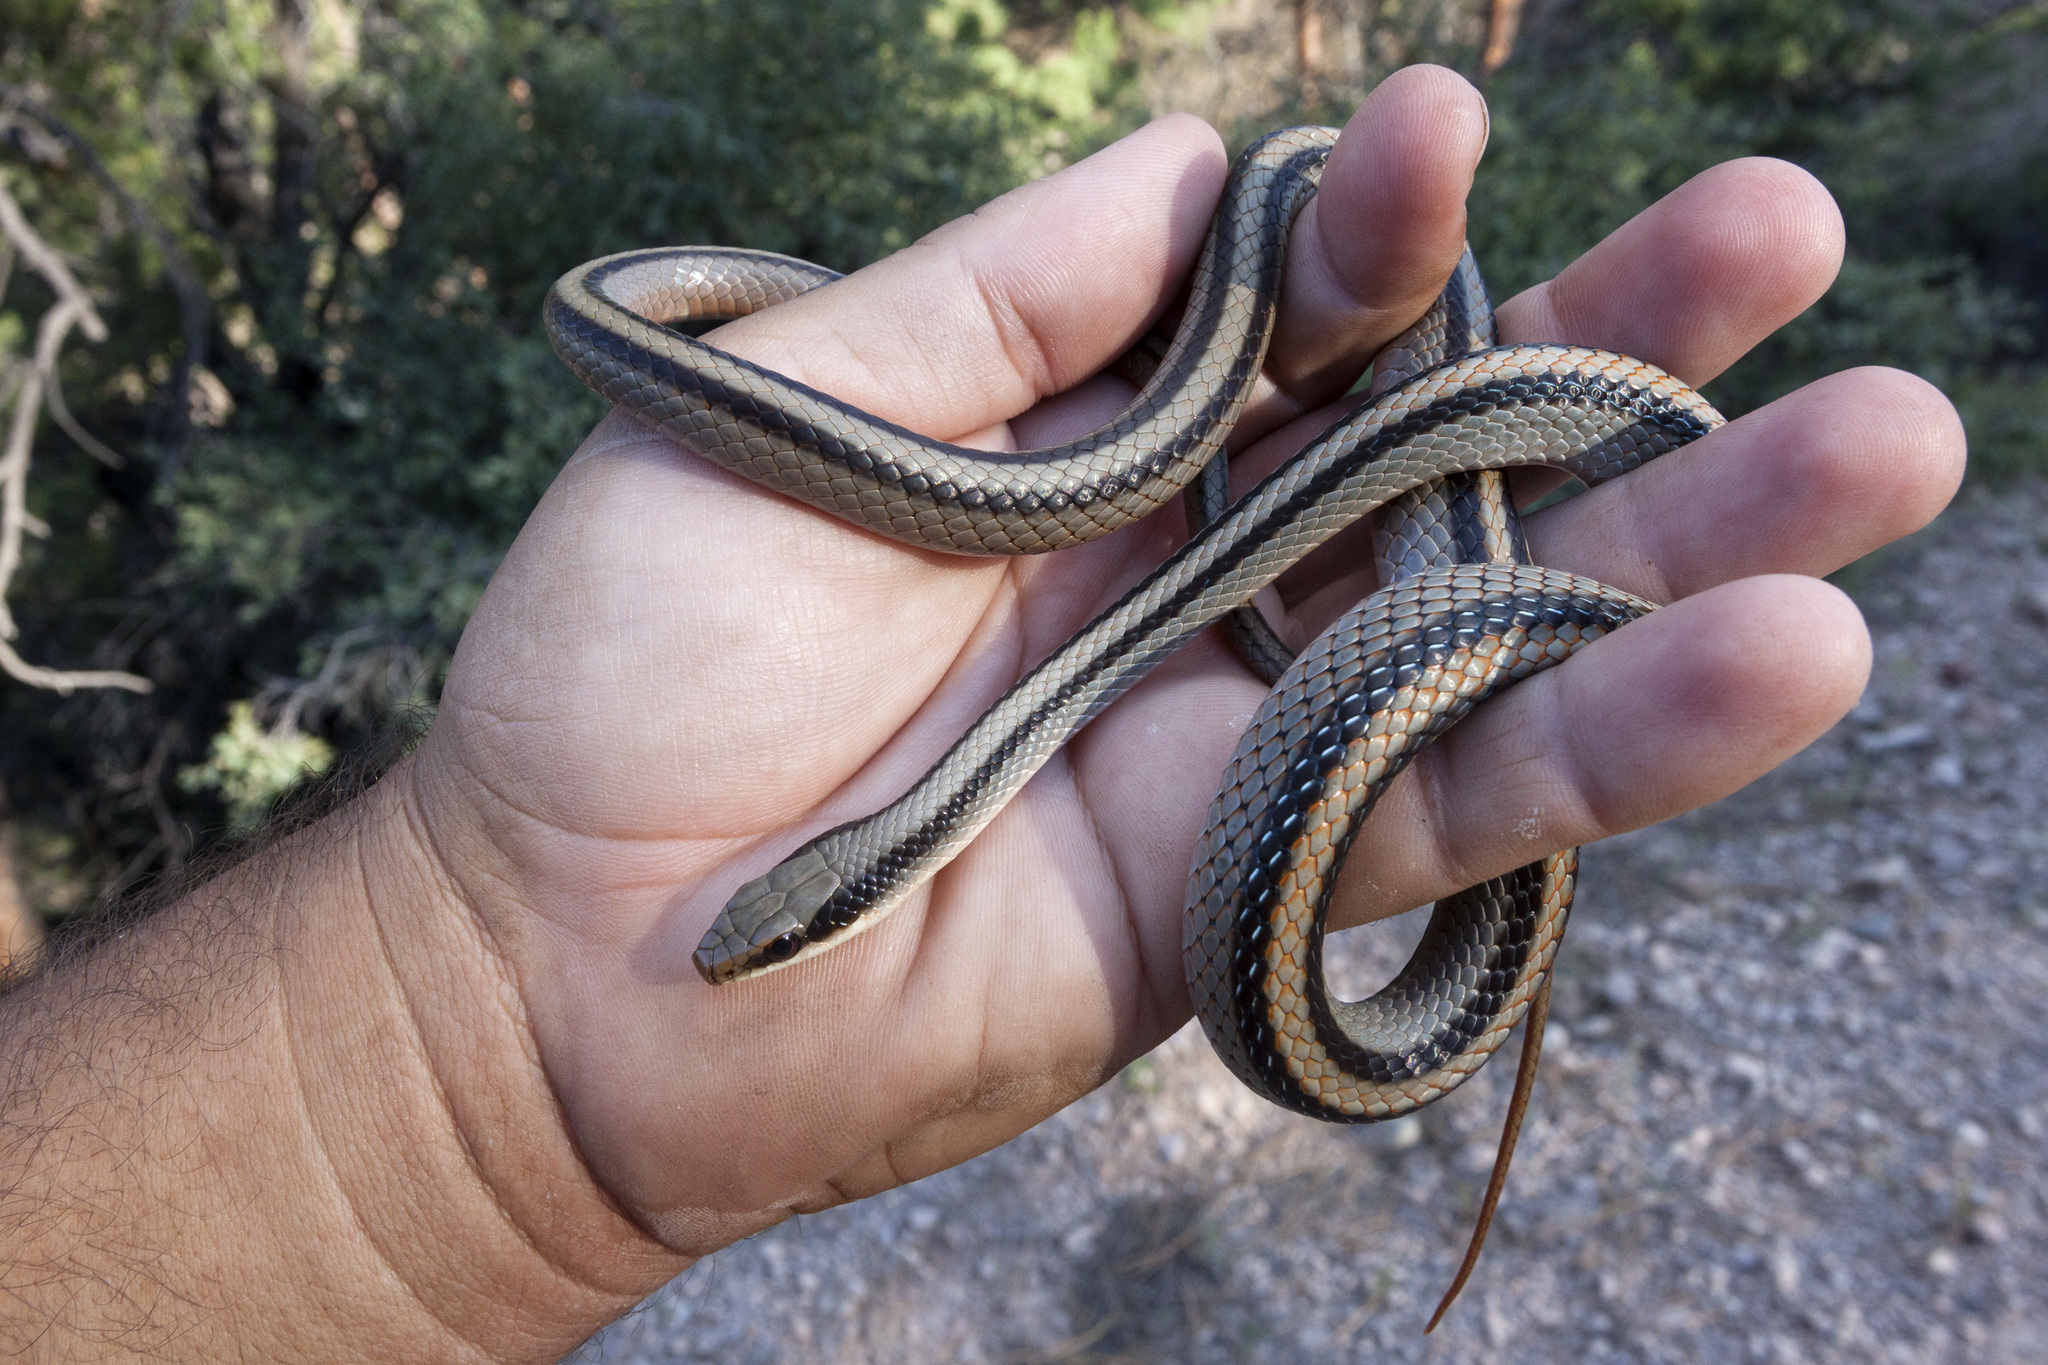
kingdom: Animalia
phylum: Chordata
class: Squamata
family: Colubridae
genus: Salvadora
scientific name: Salvadora grahamiae
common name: Mountain patchnose snake
